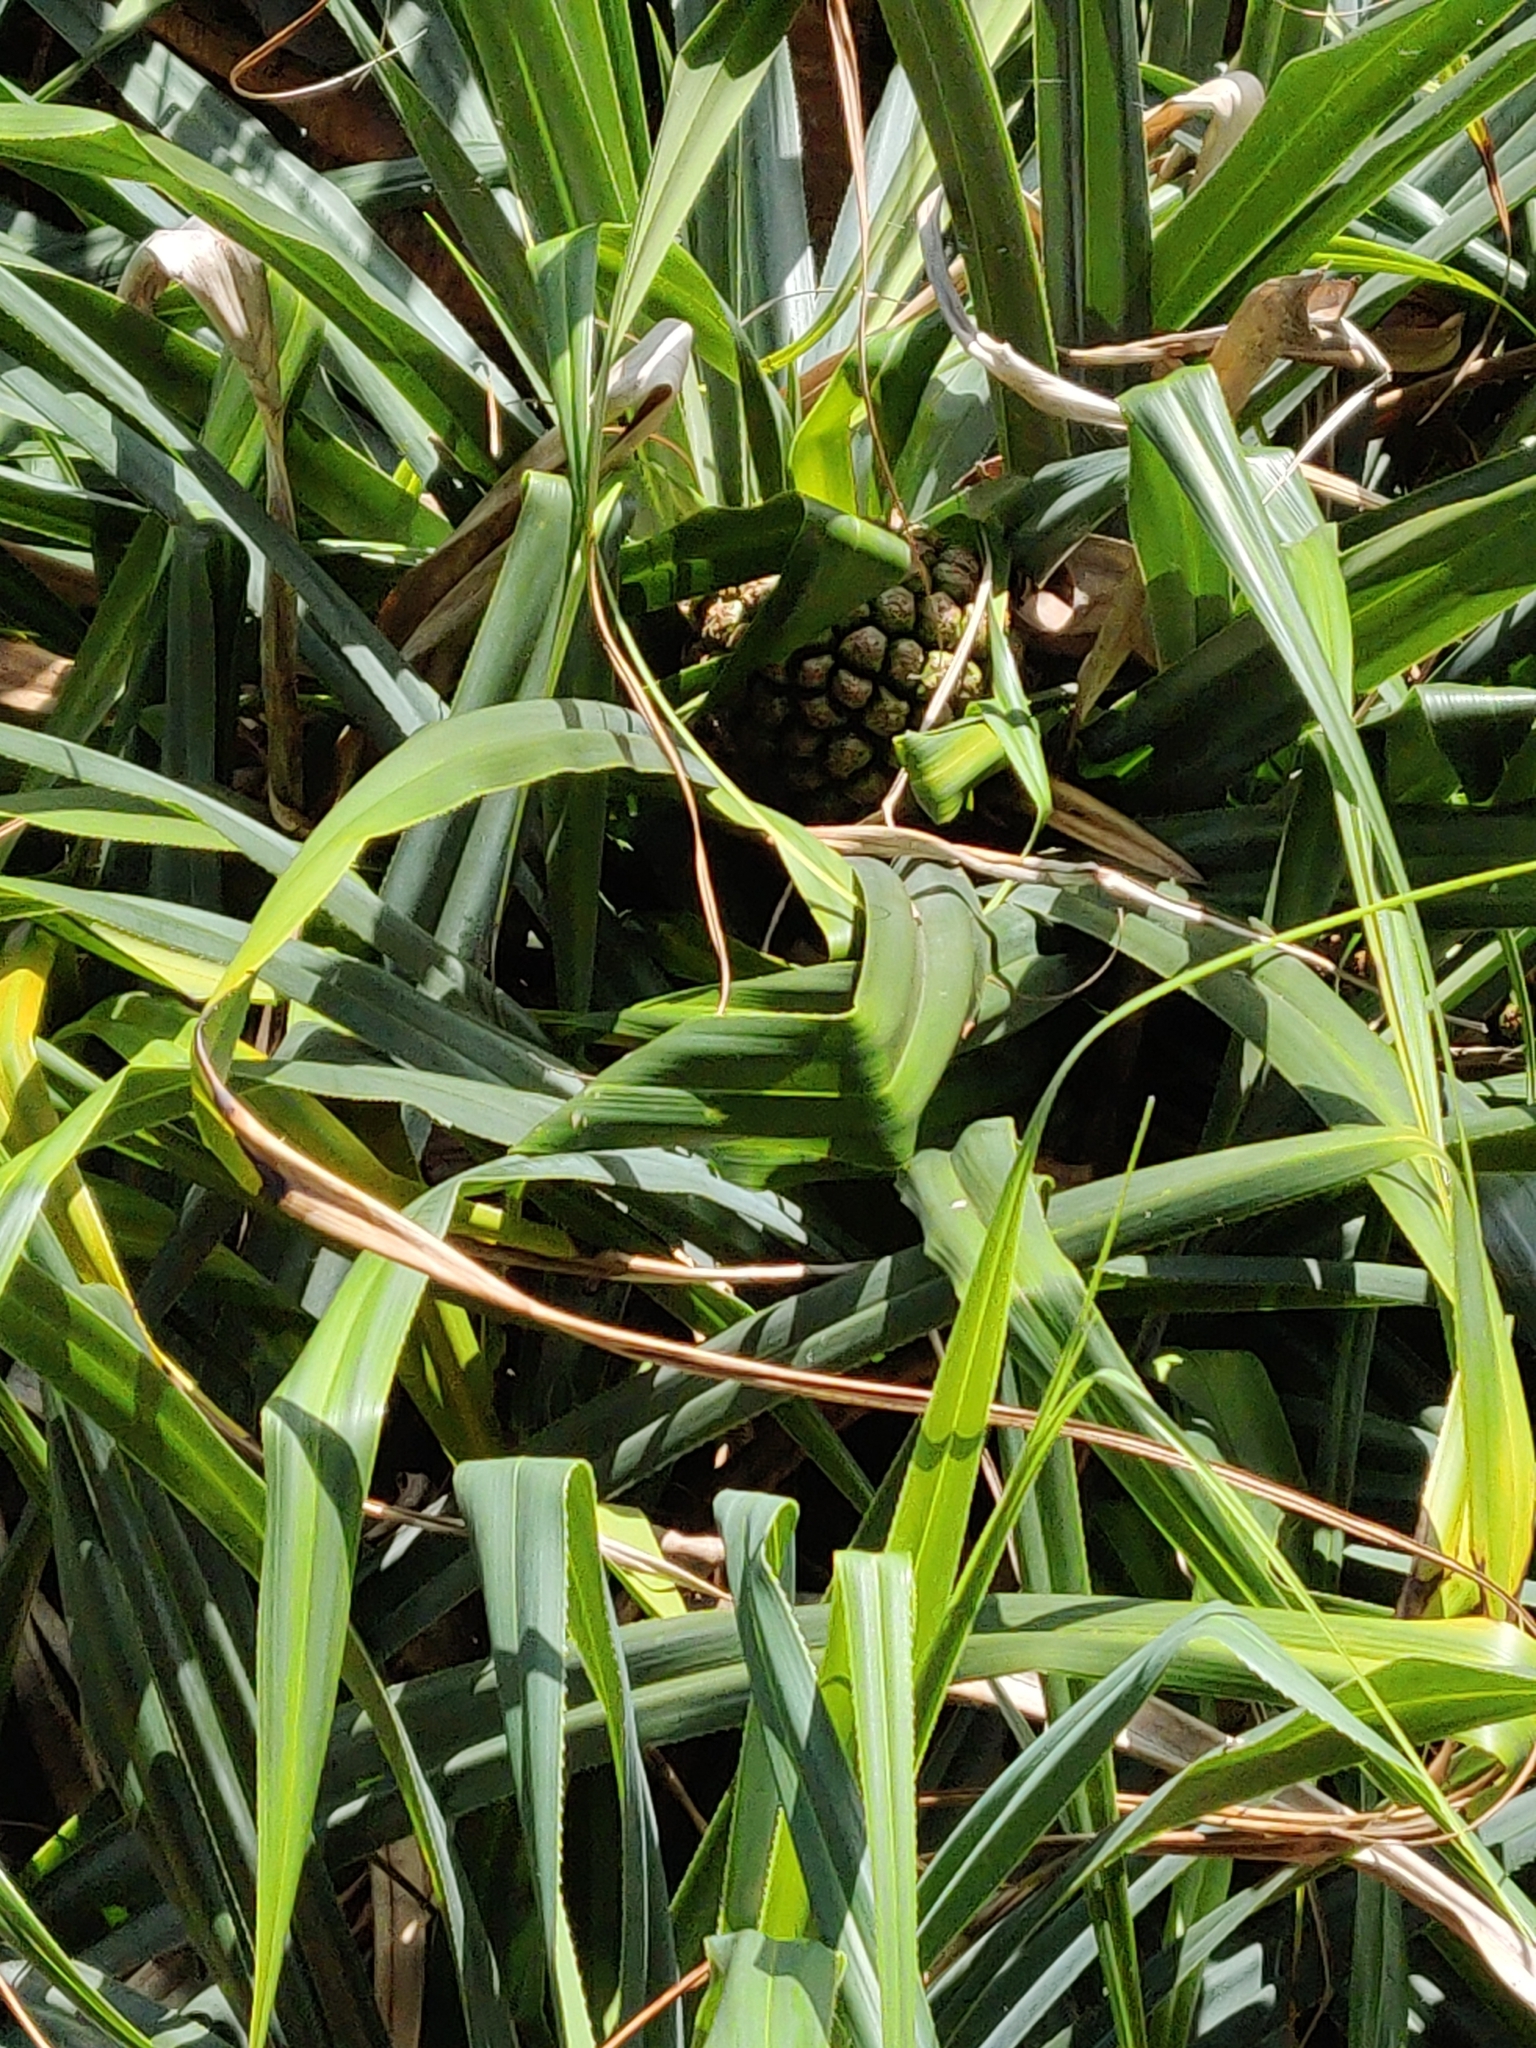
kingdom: Plantae
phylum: Tracheophyta
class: Liliopsida
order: Pandanales
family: Pandanaceae
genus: Pandanus
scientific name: Pandanus tectorius
